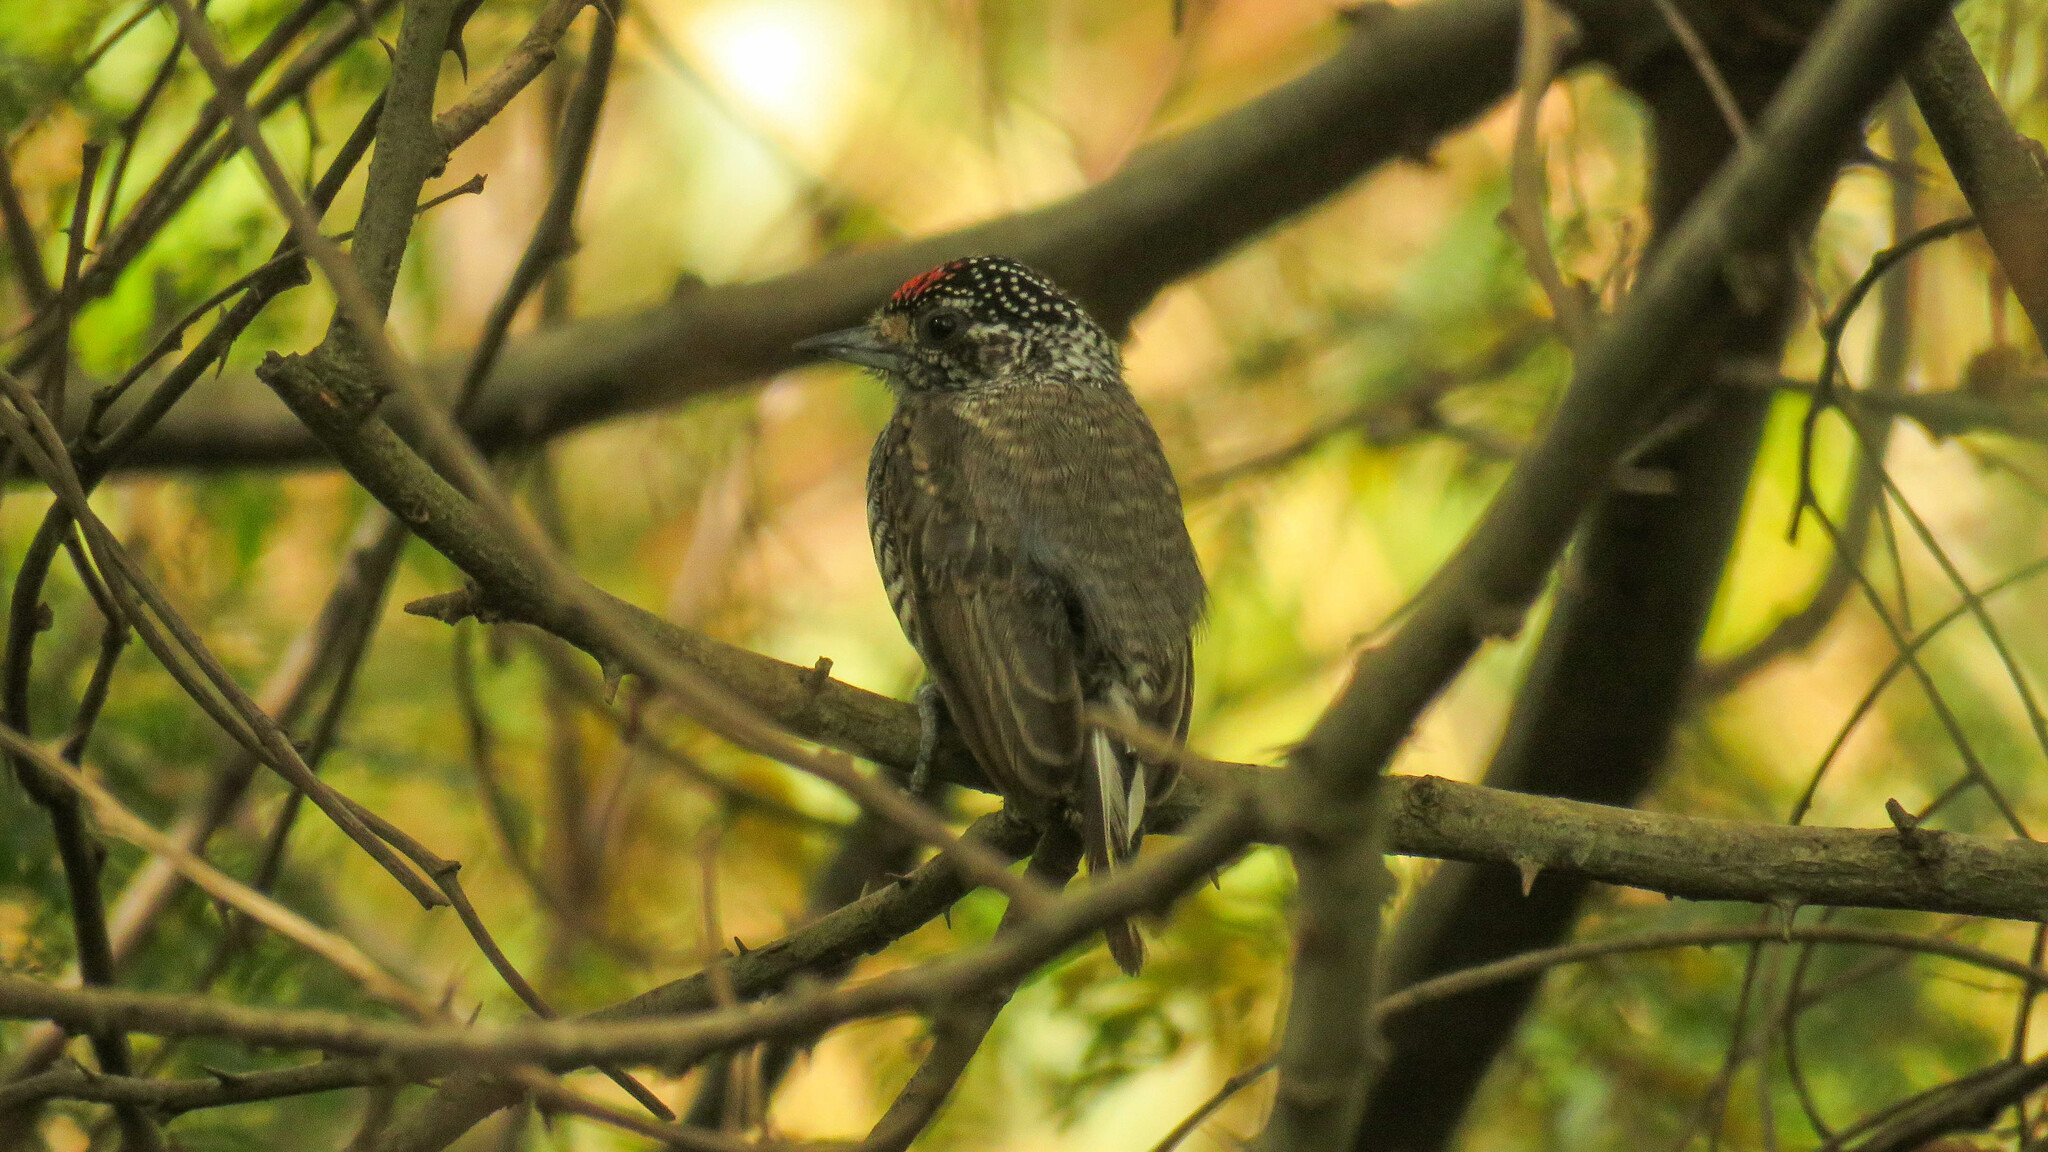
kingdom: Animalia
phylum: Chordata
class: Aves
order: Piciformes
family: Picidae
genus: Picumnus
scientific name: Picumnus cirratus
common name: White-barred piculet
